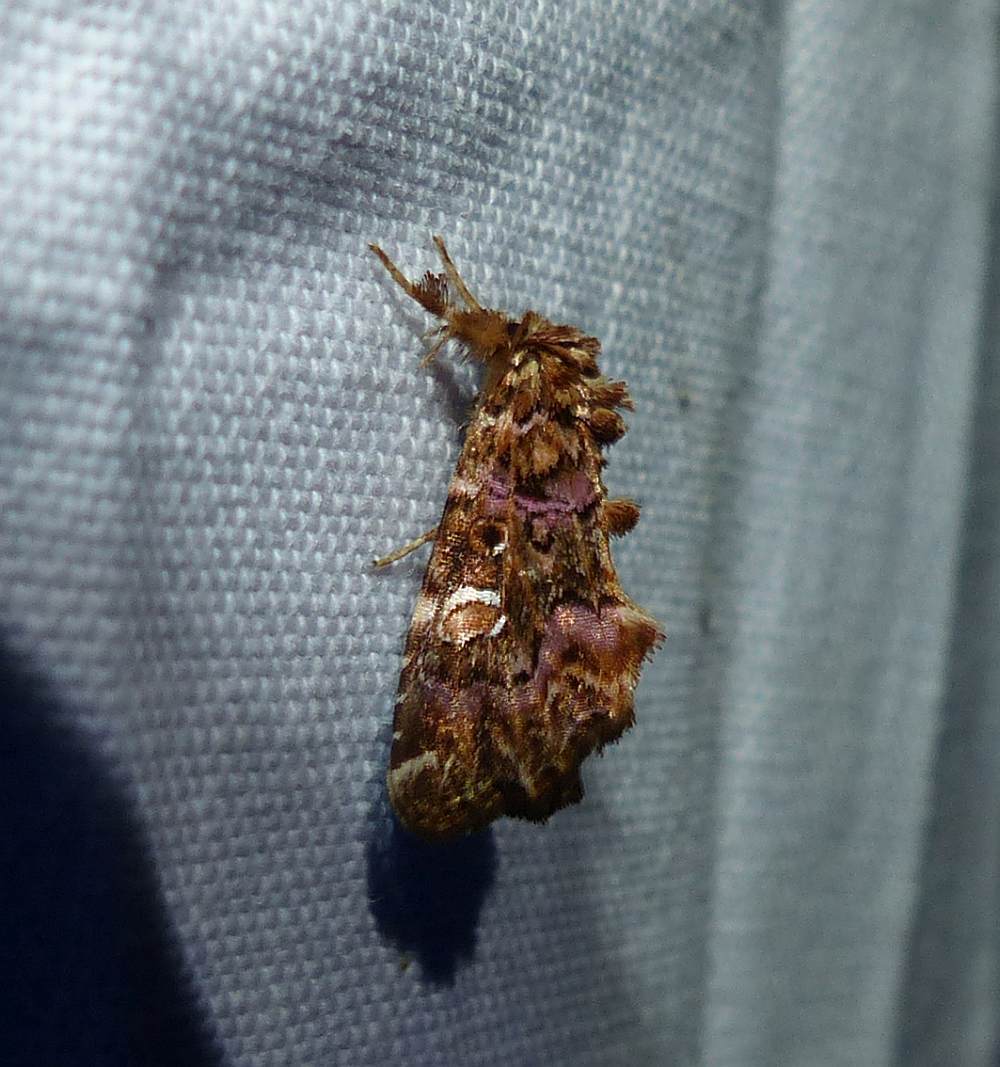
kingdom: Animalia
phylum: Arthropoda
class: Insecta
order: Lepidoptera
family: Noctuidae
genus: Callopistria
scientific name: Callopistria mollissima
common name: Pink-shaded fern moth
